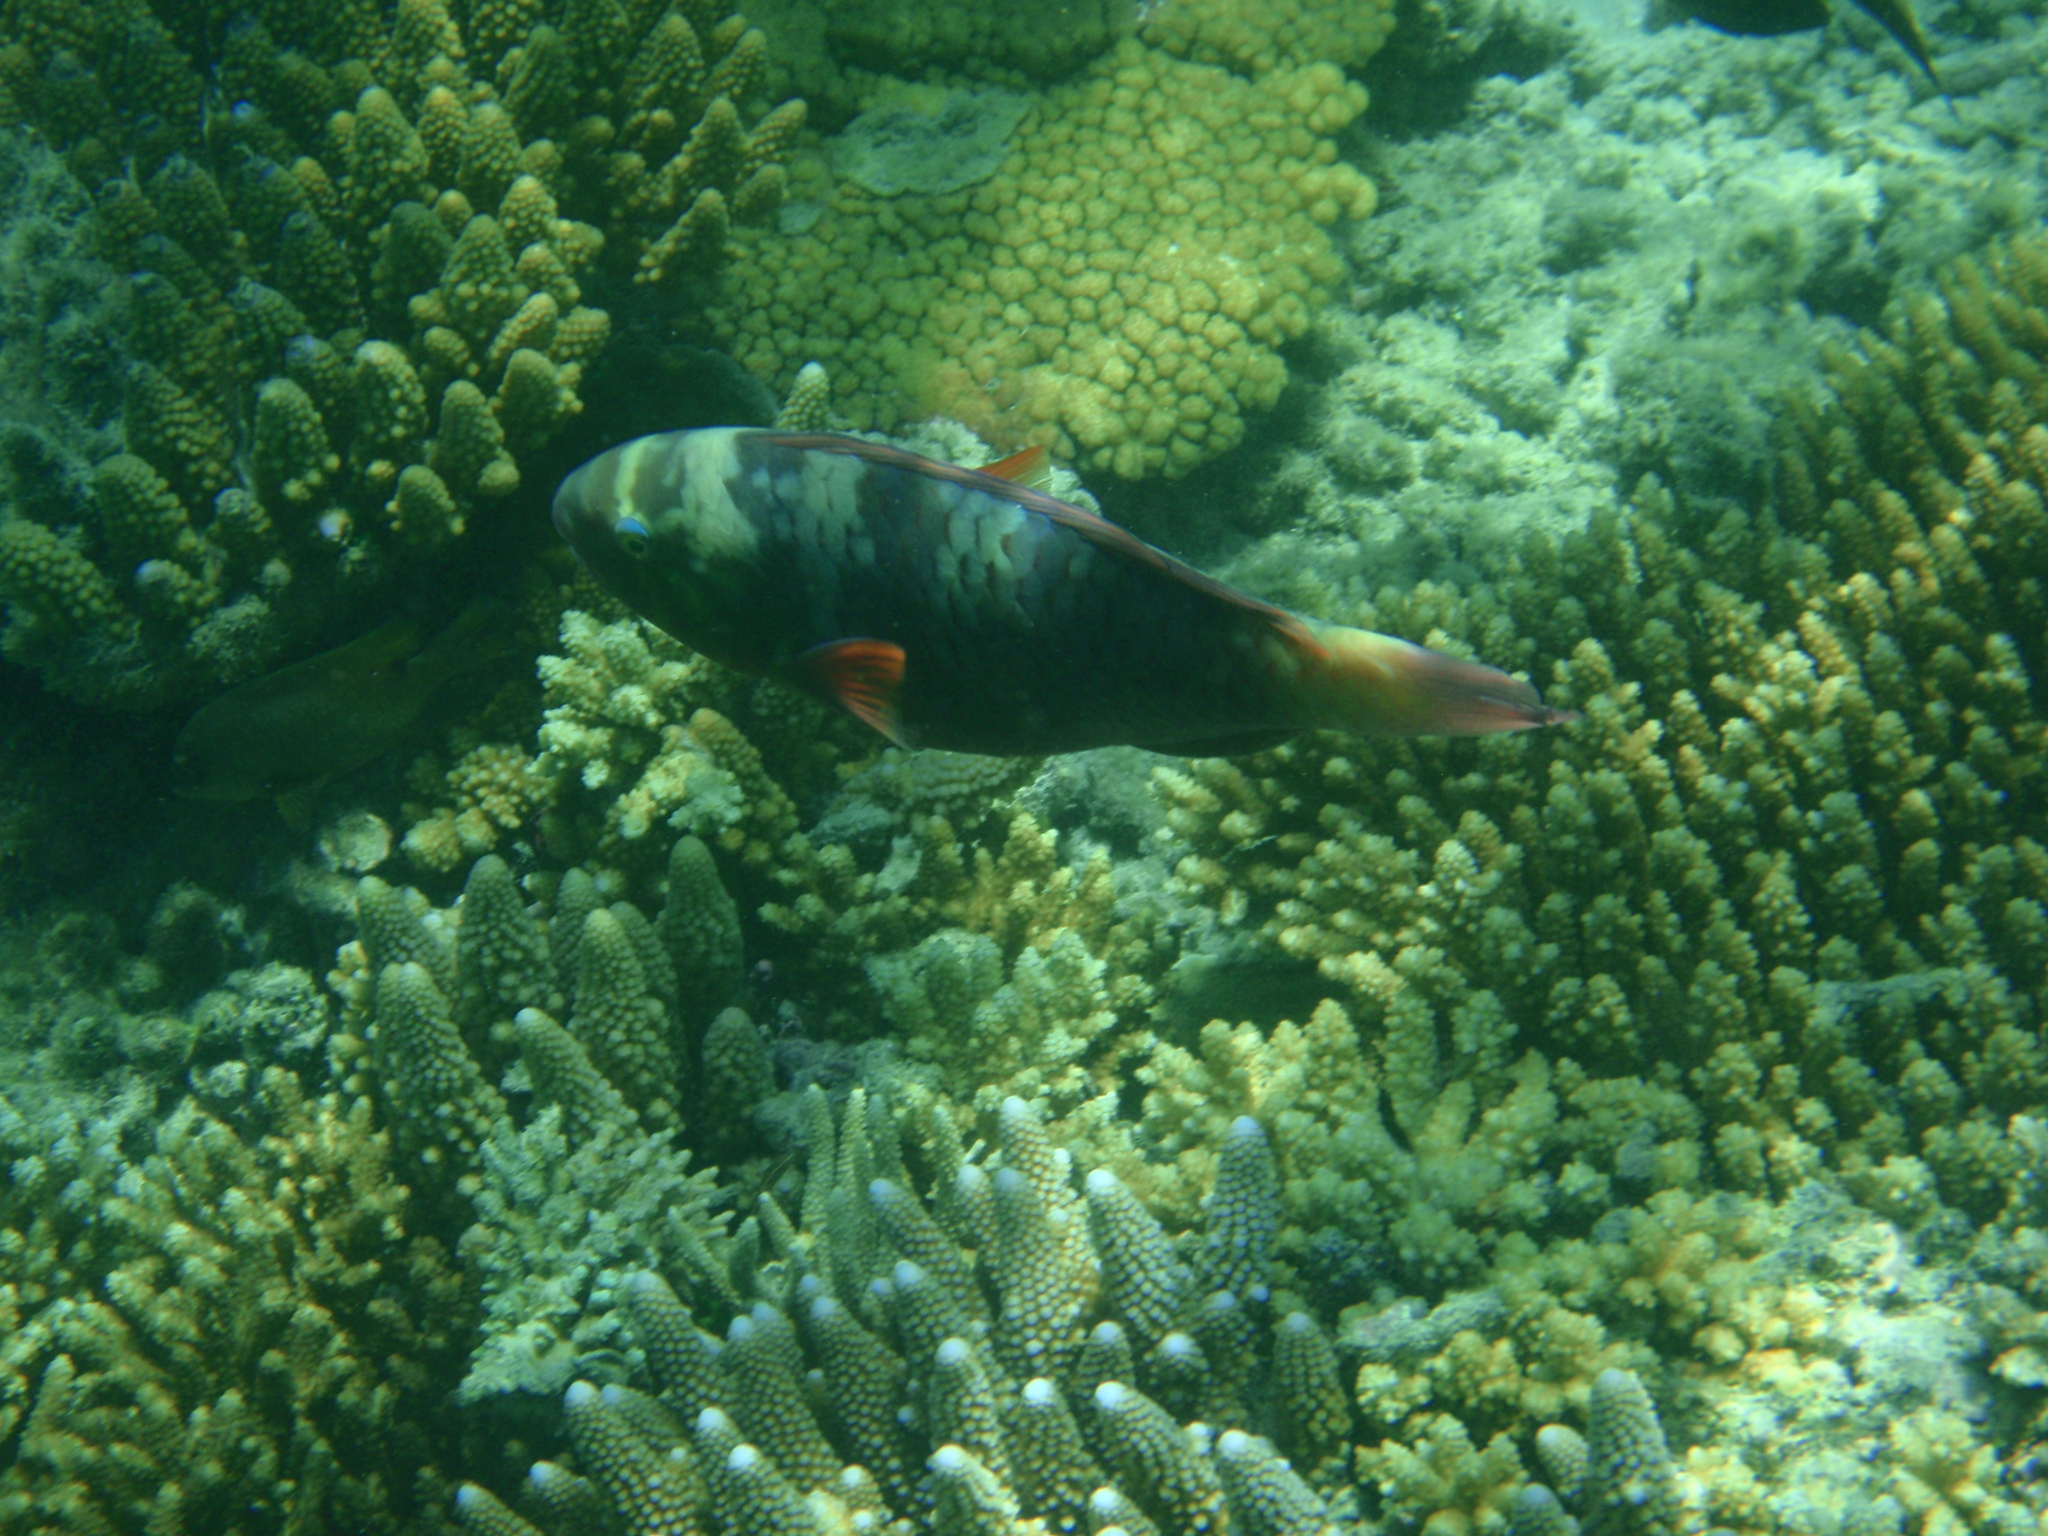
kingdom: Animalia
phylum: Chordata
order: Perciformes
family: Scaridae
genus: Chlorurus
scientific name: Chlorurus bleekeri
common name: Bleeker's parrotfish
